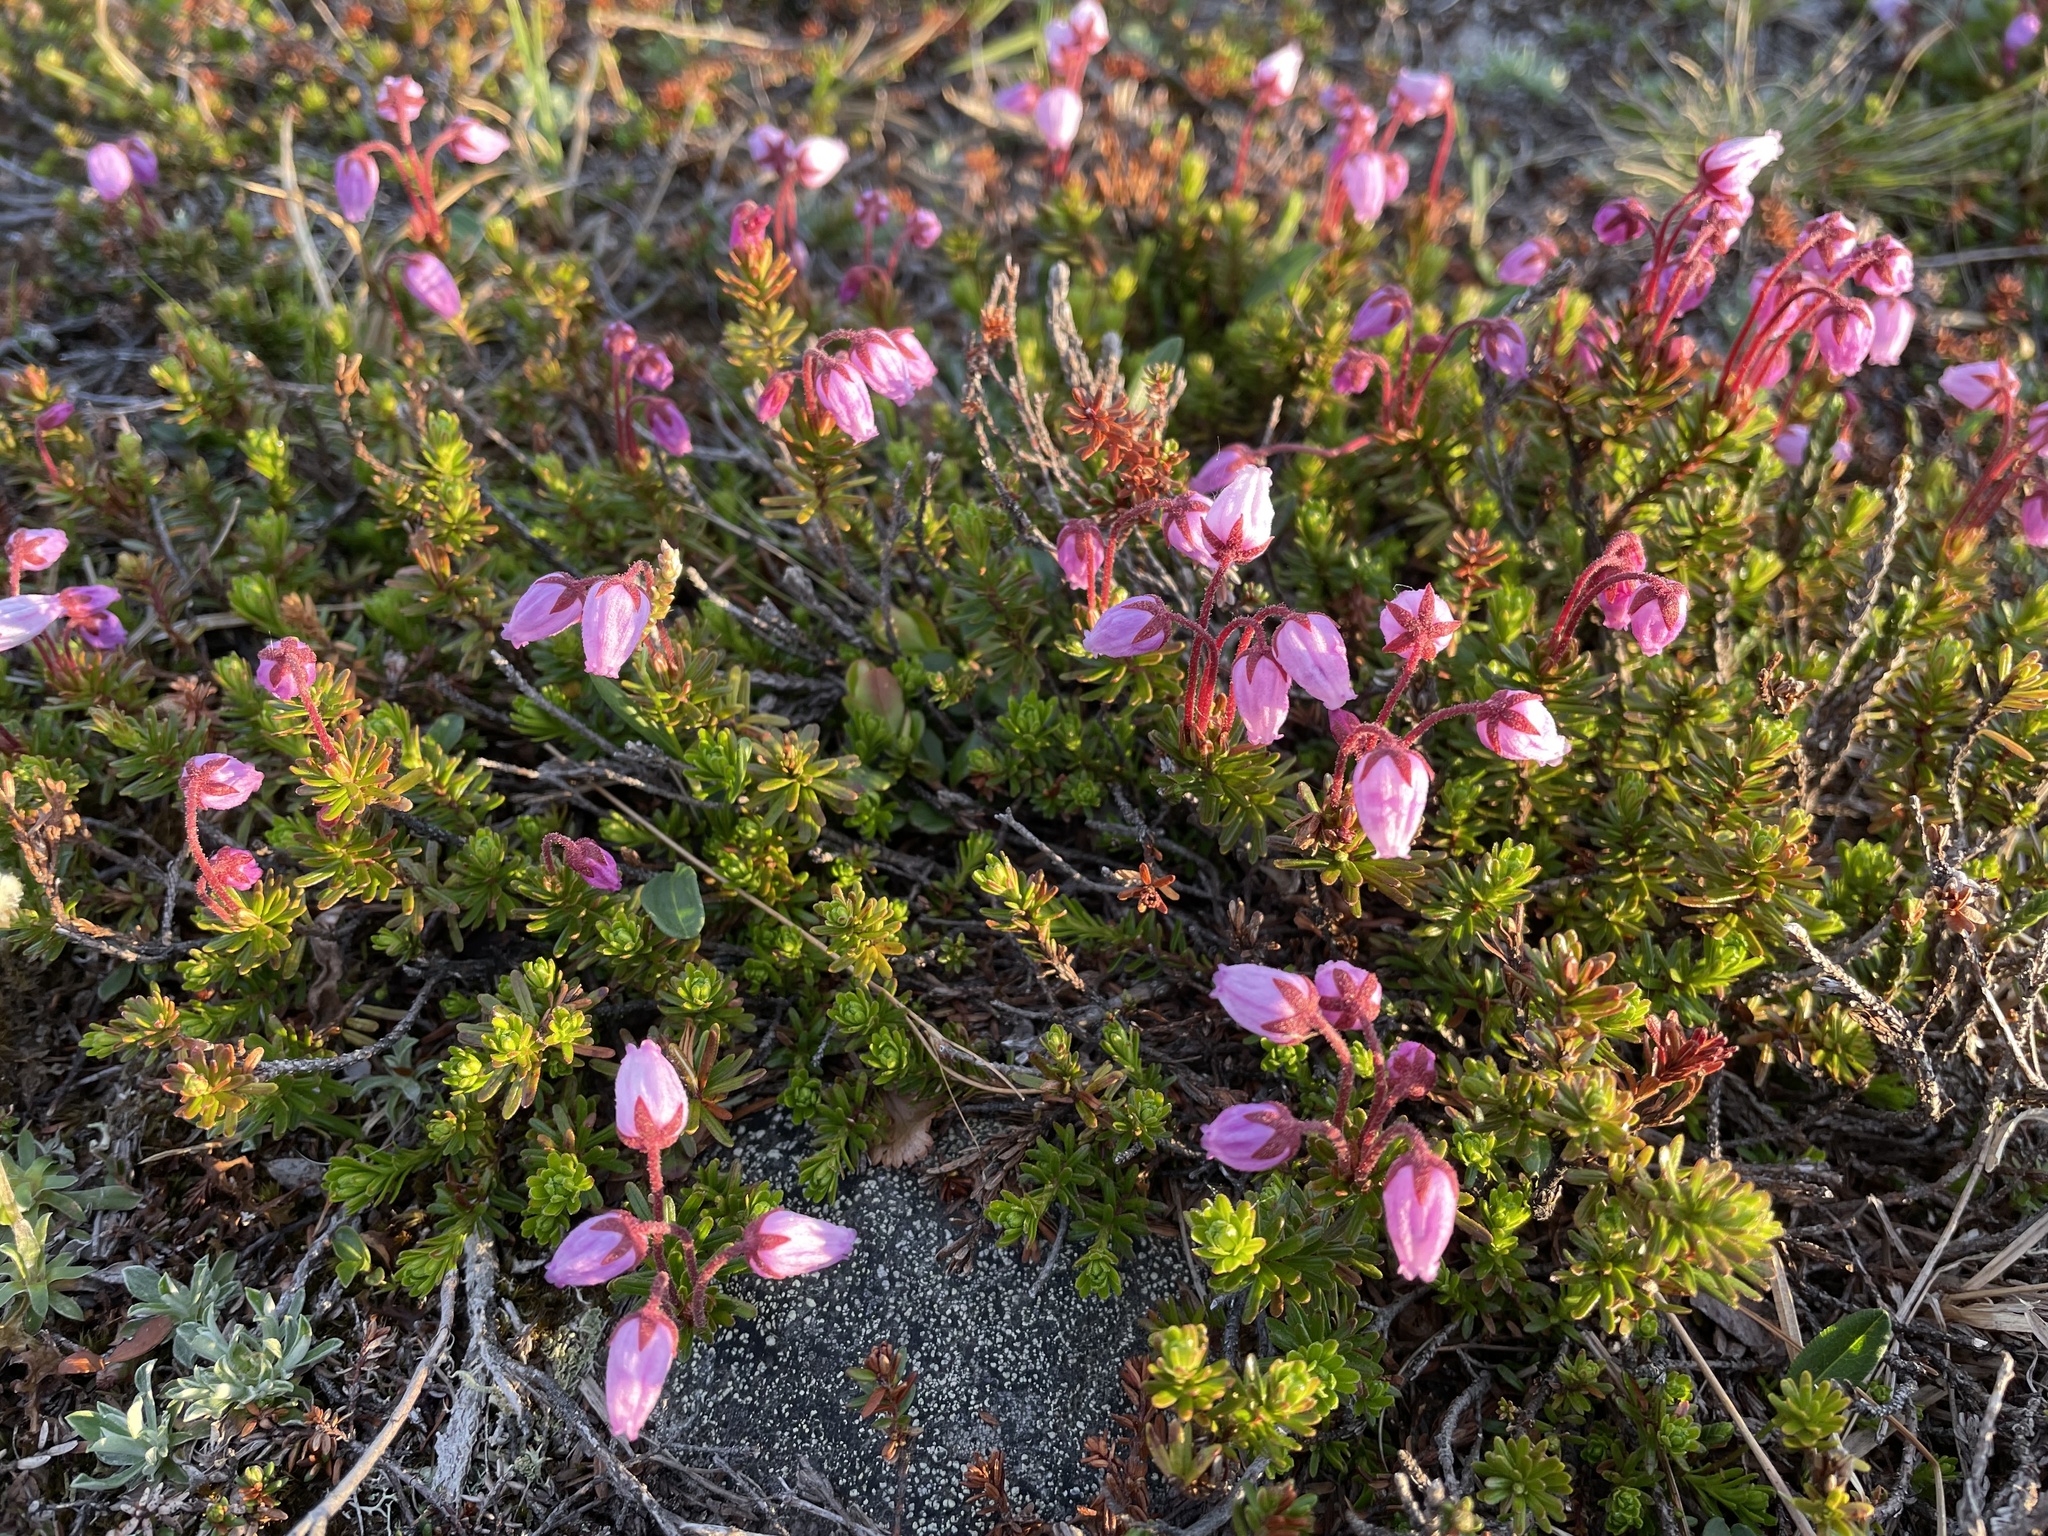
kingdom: Plantae
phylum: Tracheophyta
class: Magnoliopsida
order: Ericales
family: Ericaceae
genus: Phyllodoce
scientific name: Phyllodoce caerulea
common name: Blue heath
